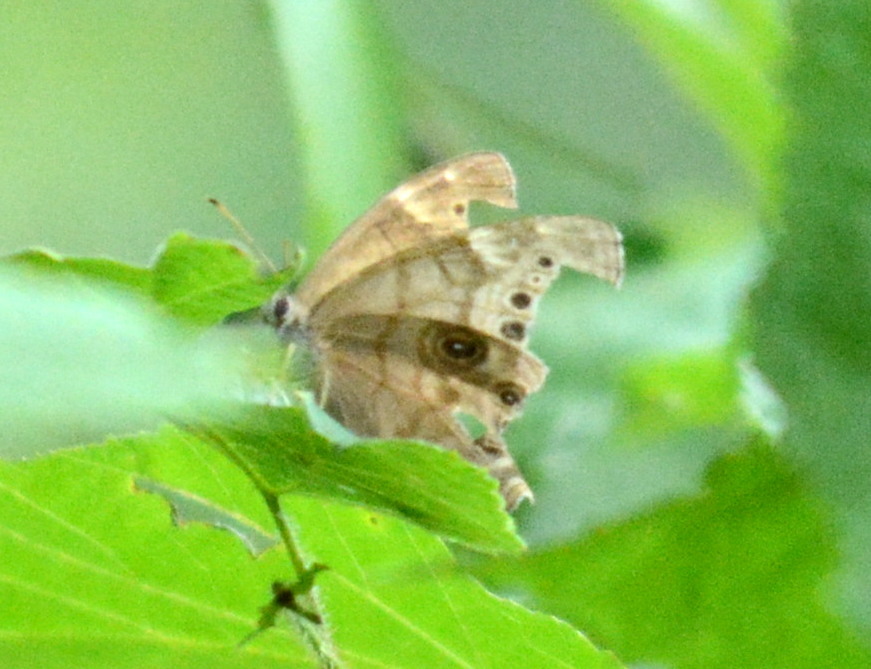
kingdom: Animalia
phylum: Arthropoda
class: Insecta
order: Lepidoptera
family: Nymphalidae
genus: Lethe
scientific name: Lethe anthedon
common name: Northern pearly-eye
